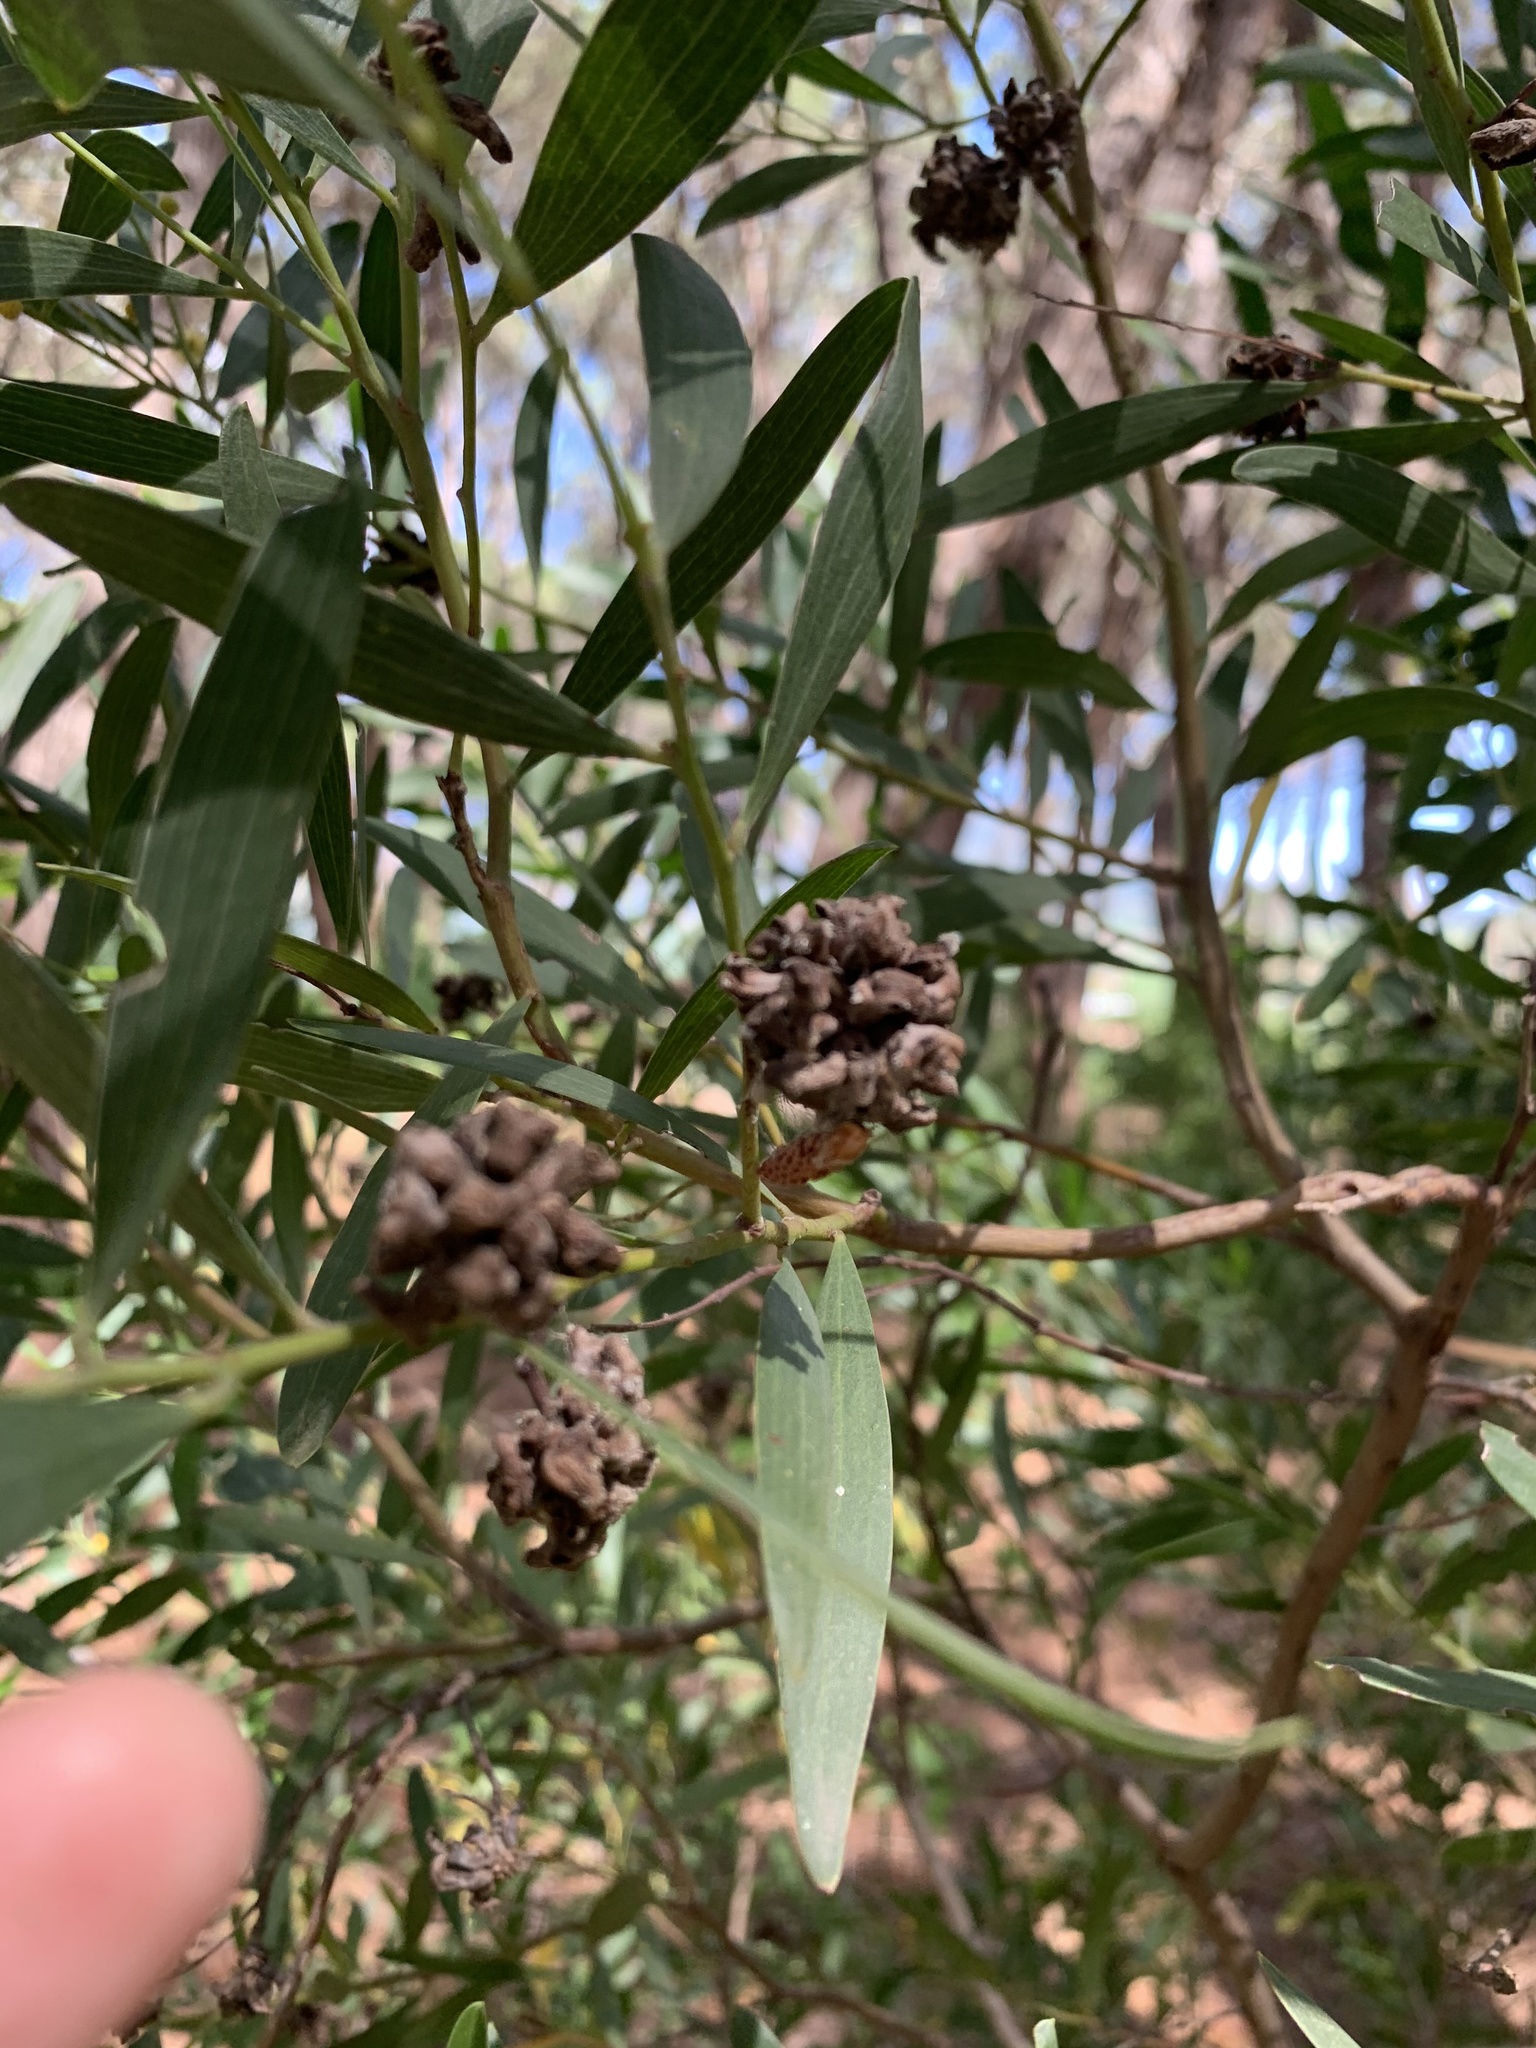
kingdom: Plantae
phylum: Tracheophyta
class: Magnoliopsida
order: Fabales
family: Fabaceae
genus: Acacia
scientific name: Acacia cyclops
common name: Coastal wattle
